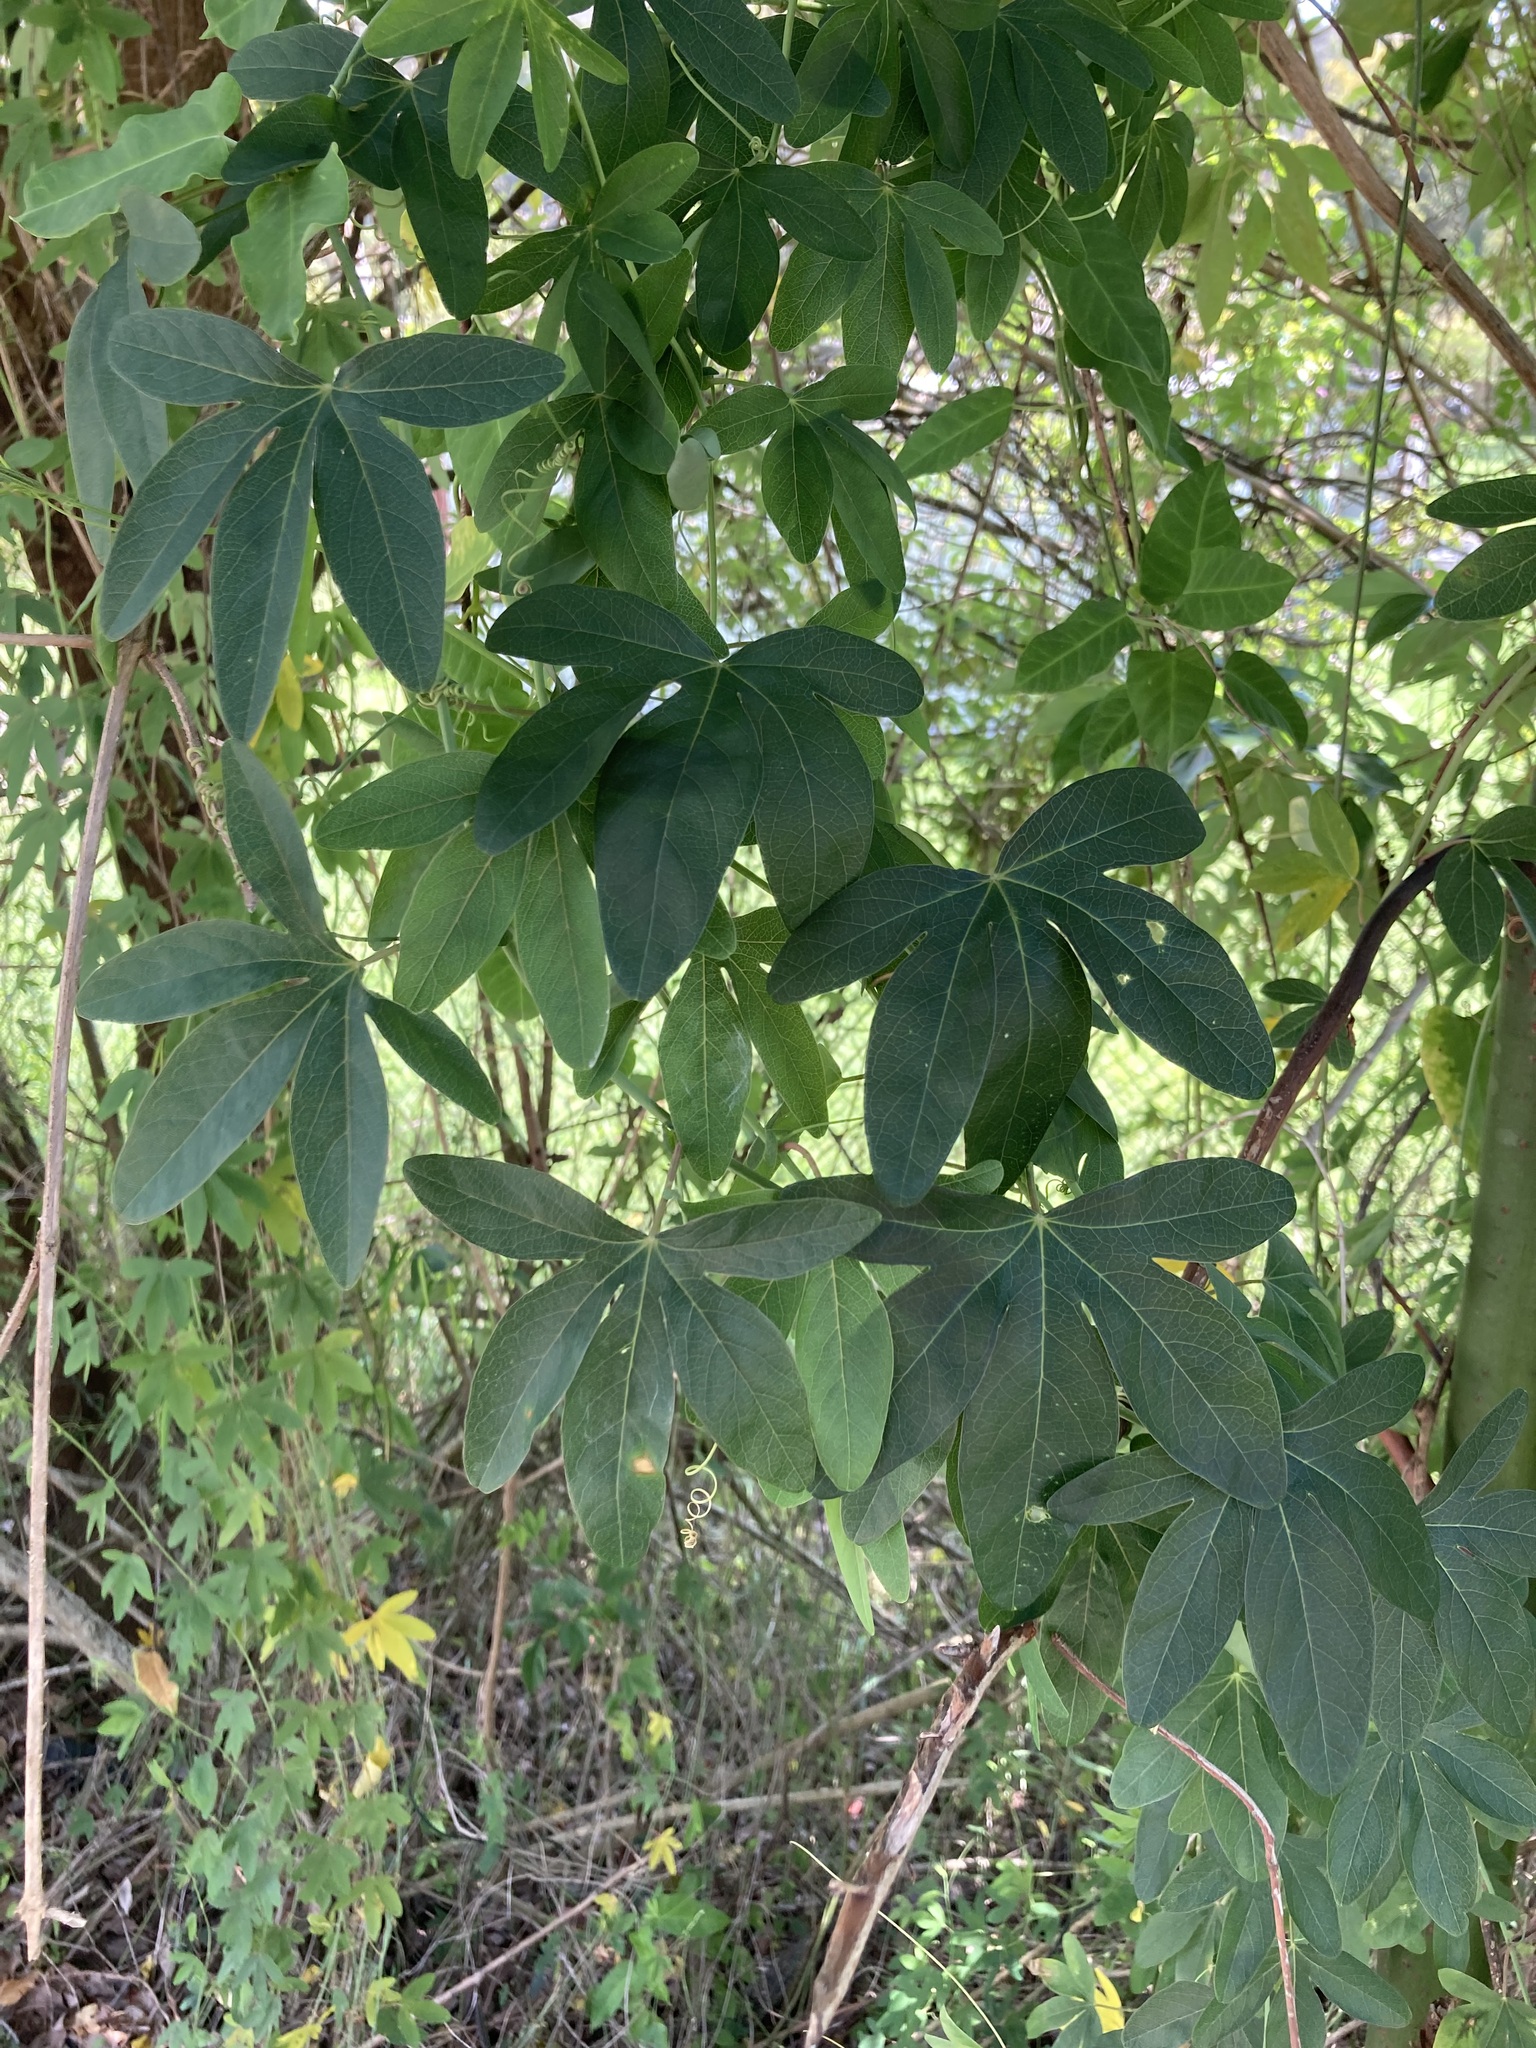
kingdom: Plantae
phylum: Tracheophyta
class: Magnoliopsida
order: Malpighiales
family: Passifloraceae
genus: Passiflora
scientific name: Passiflora caerulea
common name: Blue passionflower
